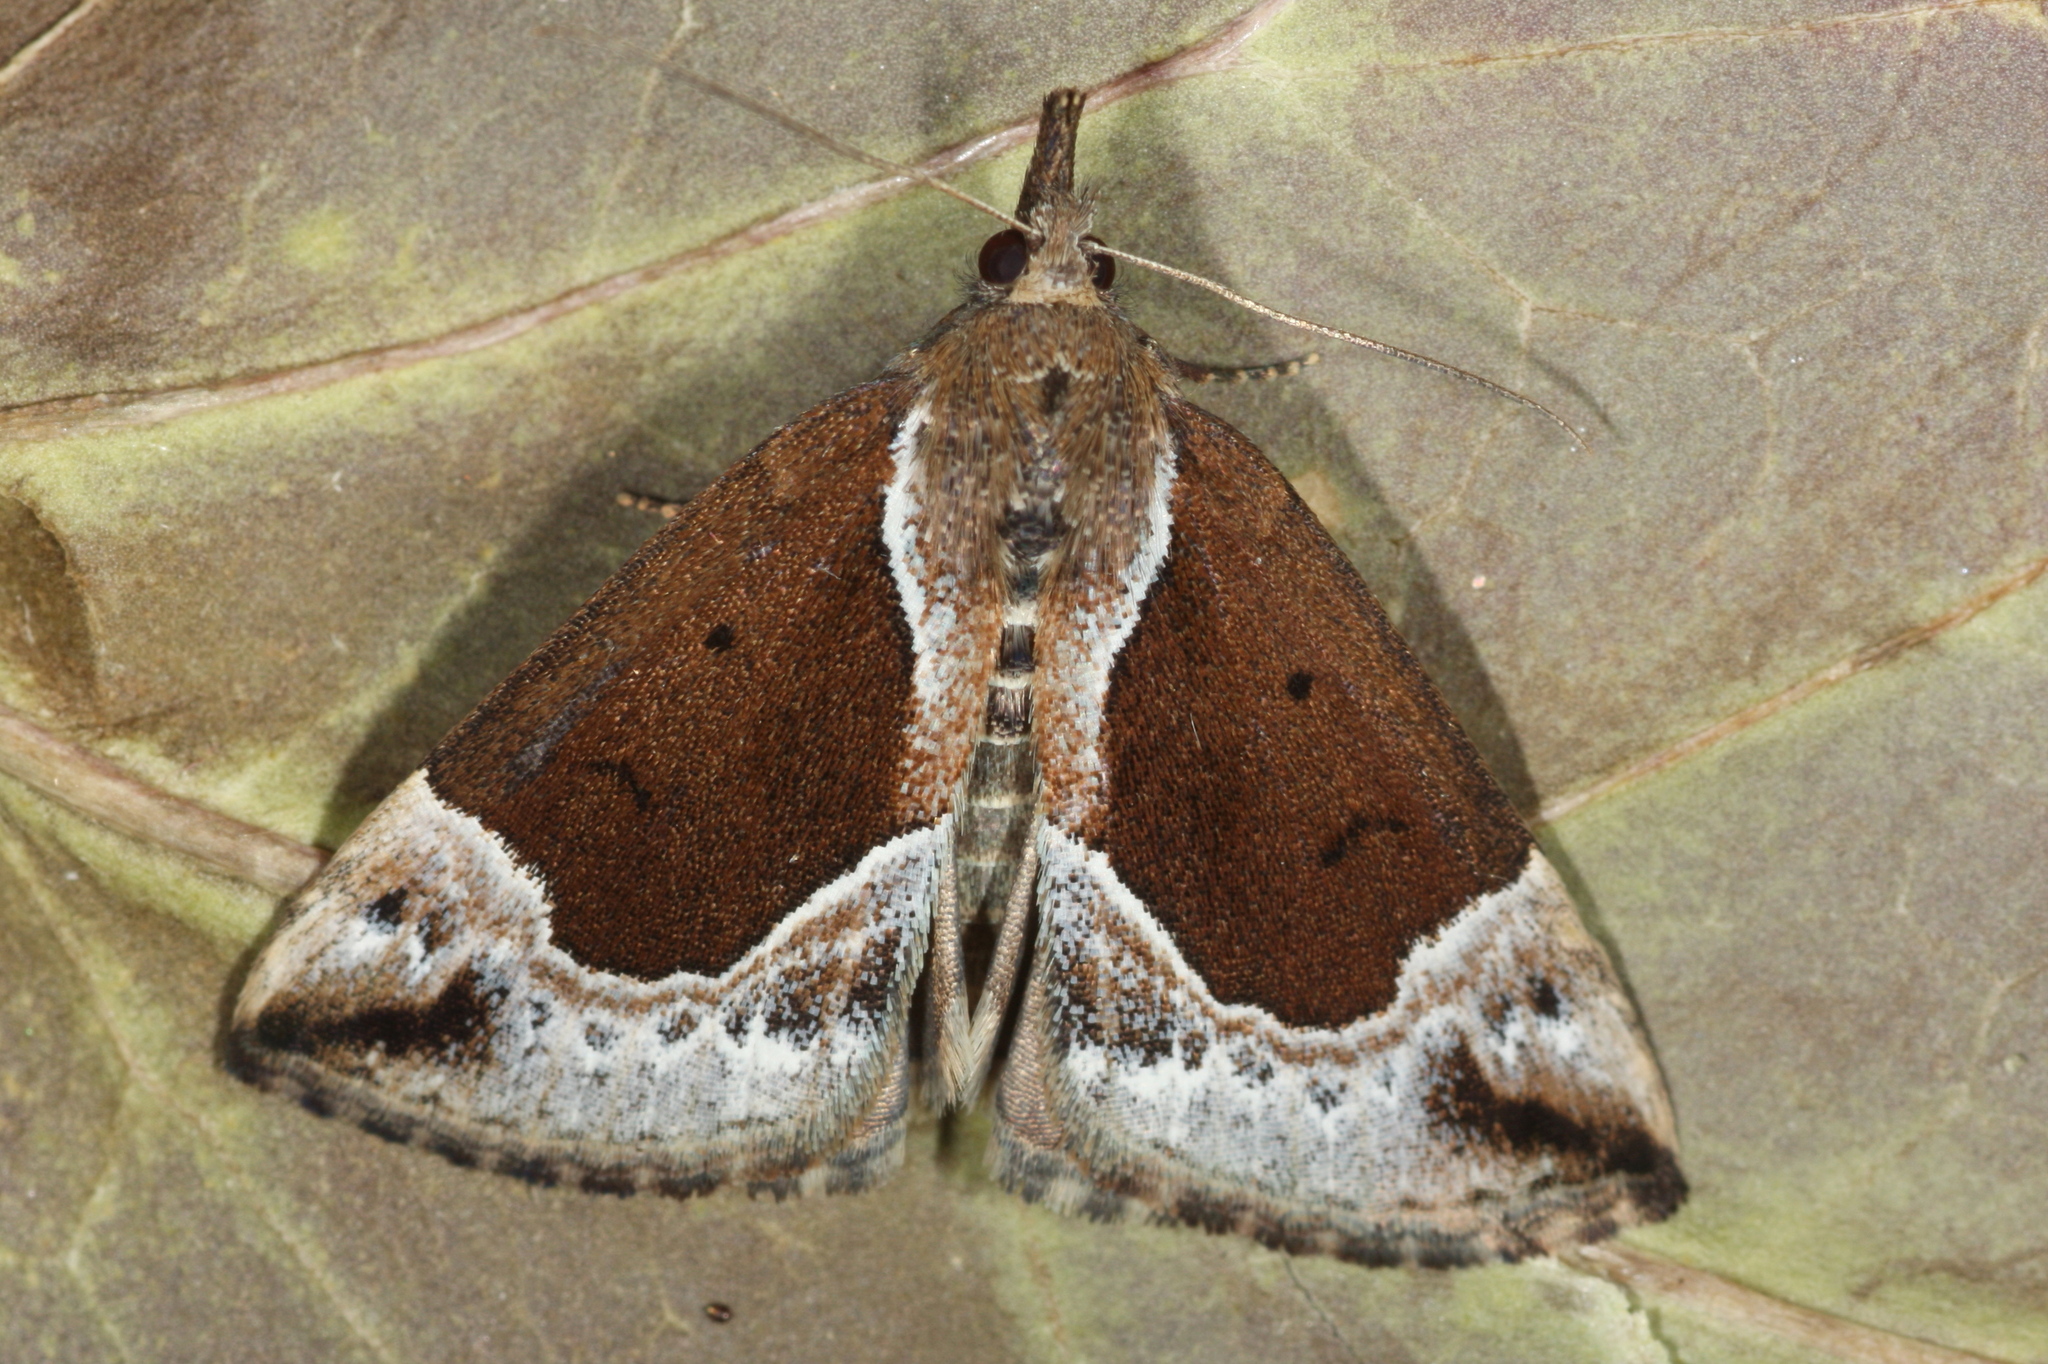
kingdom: Animalia
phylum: Arthropoda
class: Insecta
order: Lepidoptera
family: Erebidae
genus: Hypena
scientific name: Hypena crassalis
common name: Beautiful snout
